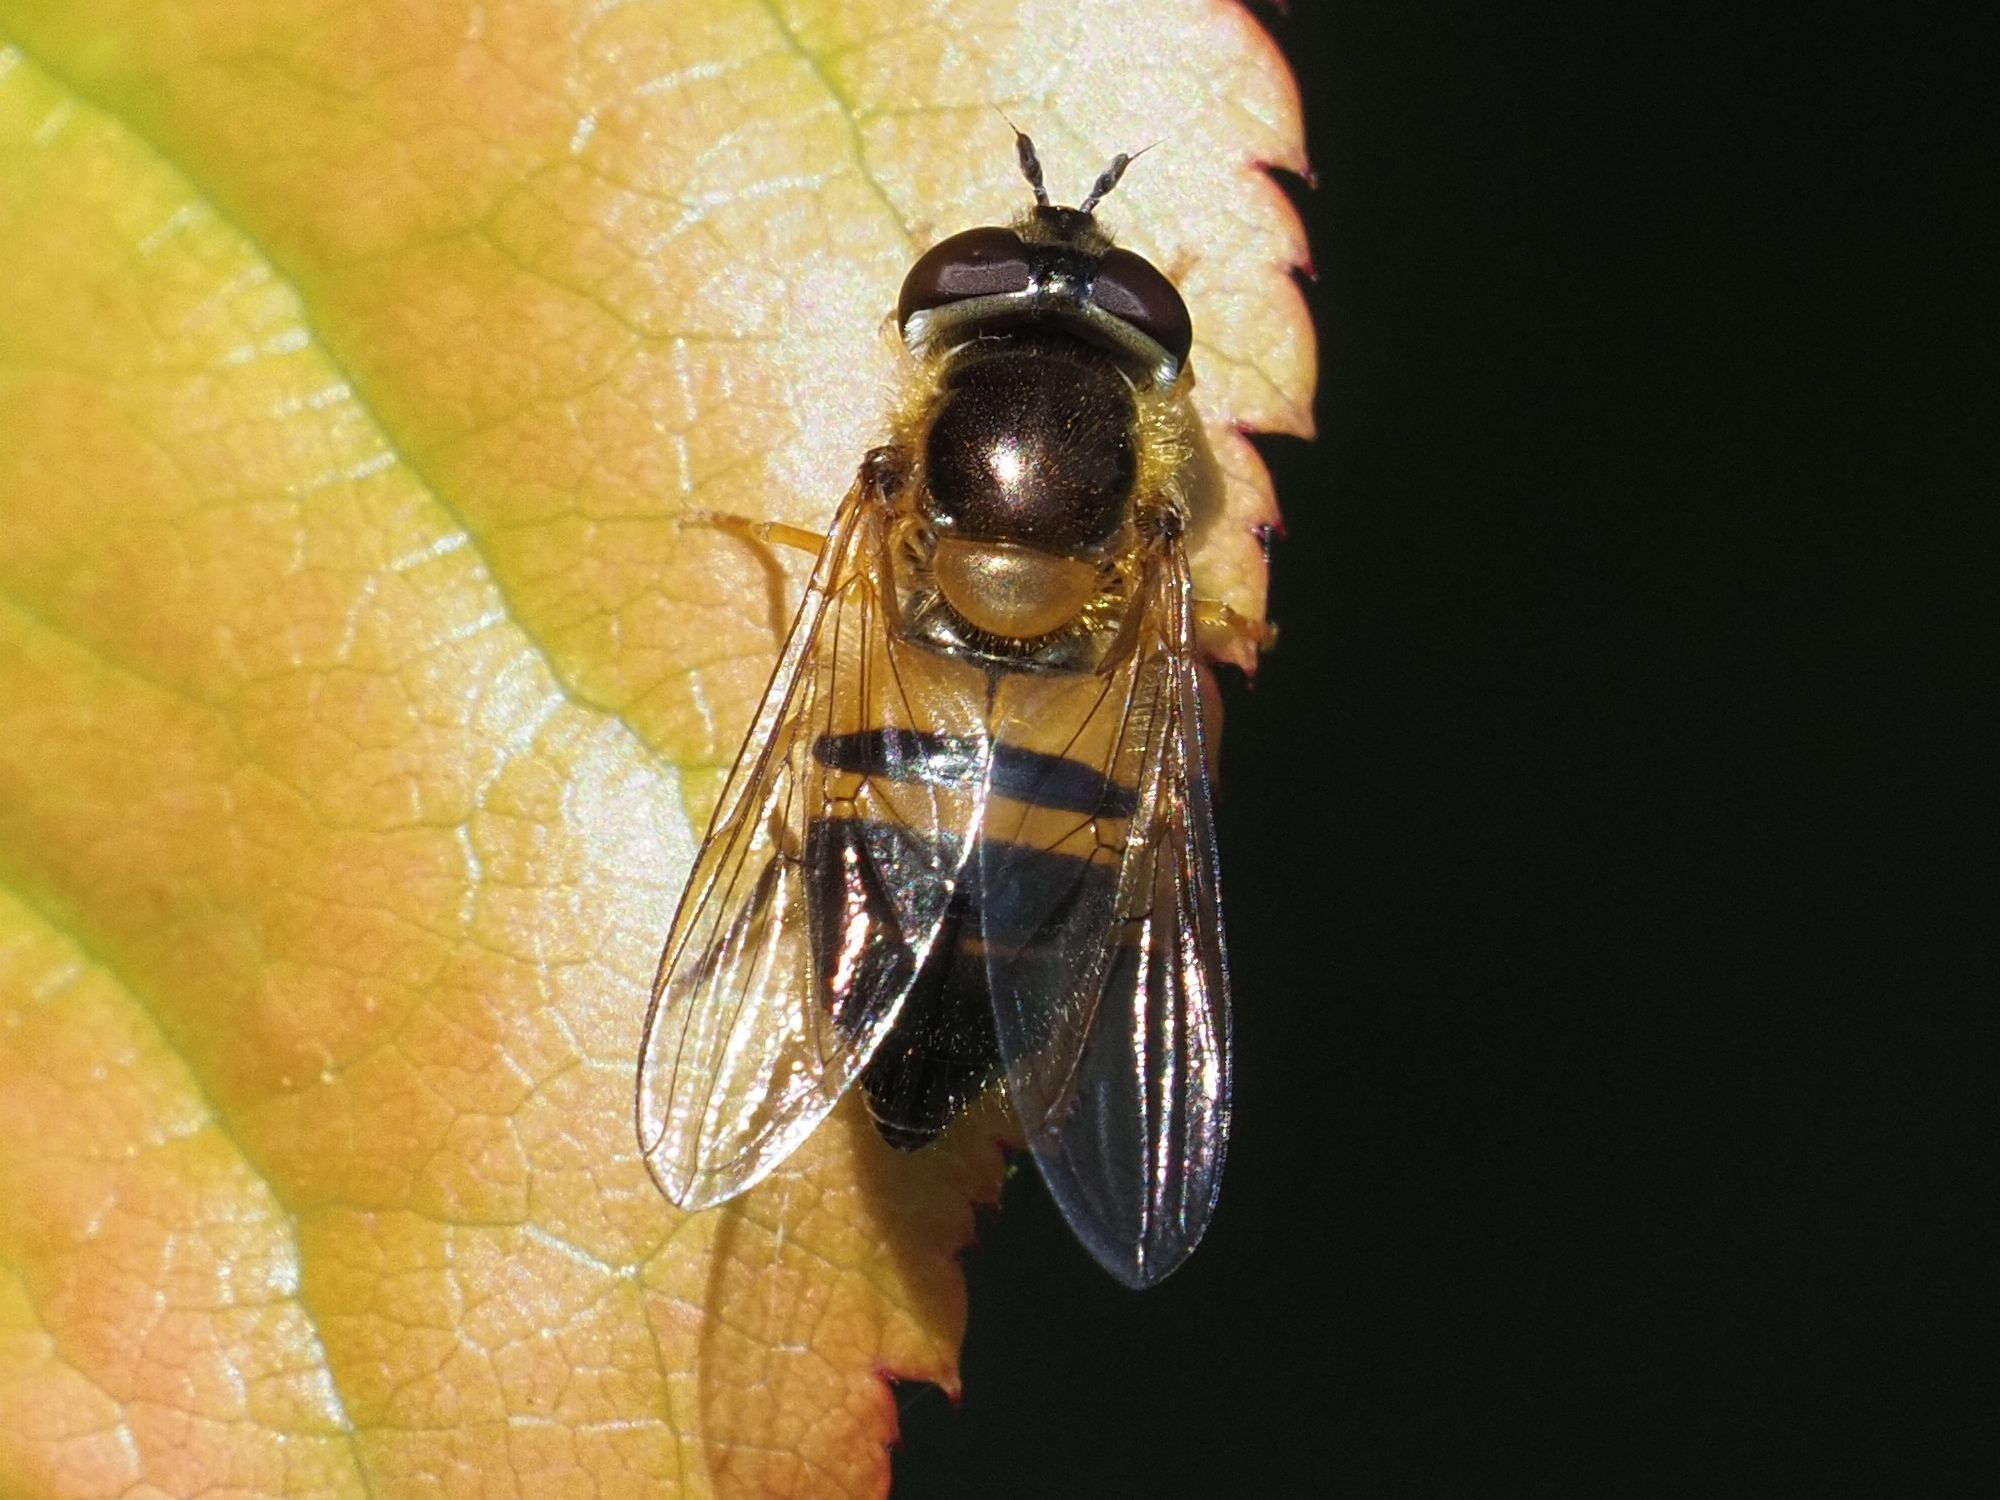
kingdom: Animalia
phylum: Arthropoda
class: Insecta
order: Diptera
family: Syrphidae
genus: Epistrophe
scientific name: Epistrophe eligans
